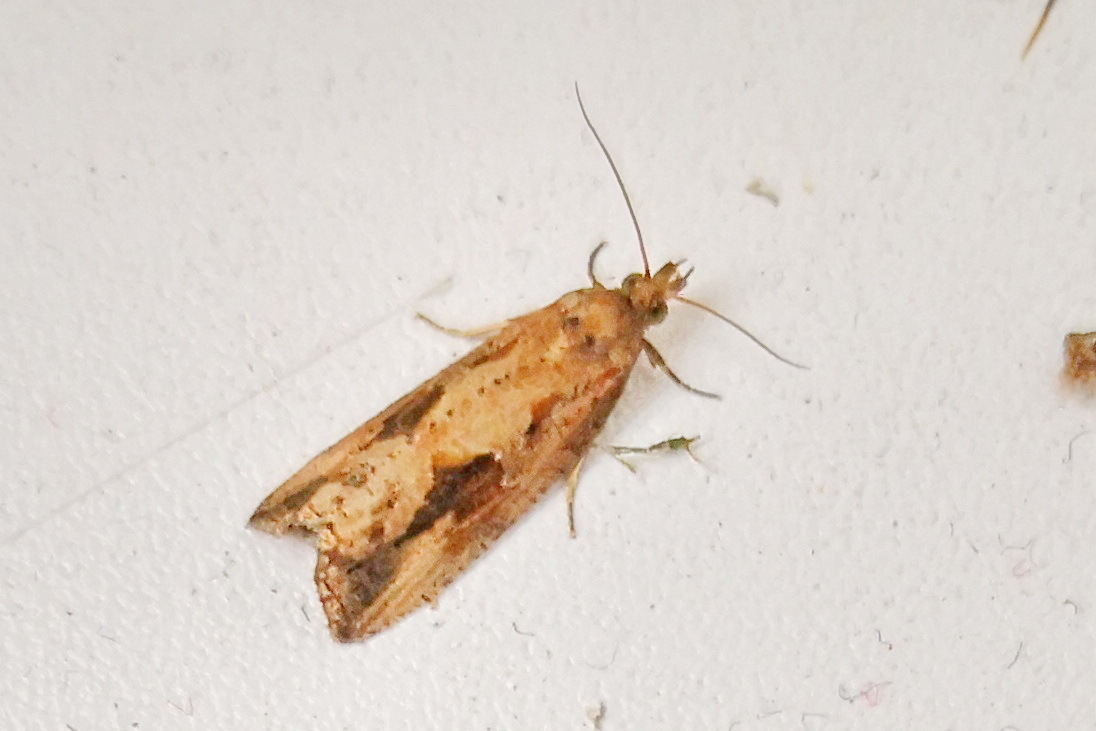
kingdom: Animalia
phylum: Arthropoda
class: Insecta
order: Lepidoptera
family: Tortricidae
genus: Endothenia
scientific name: Endothenia quadrimaculana
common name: Tortricid moth
